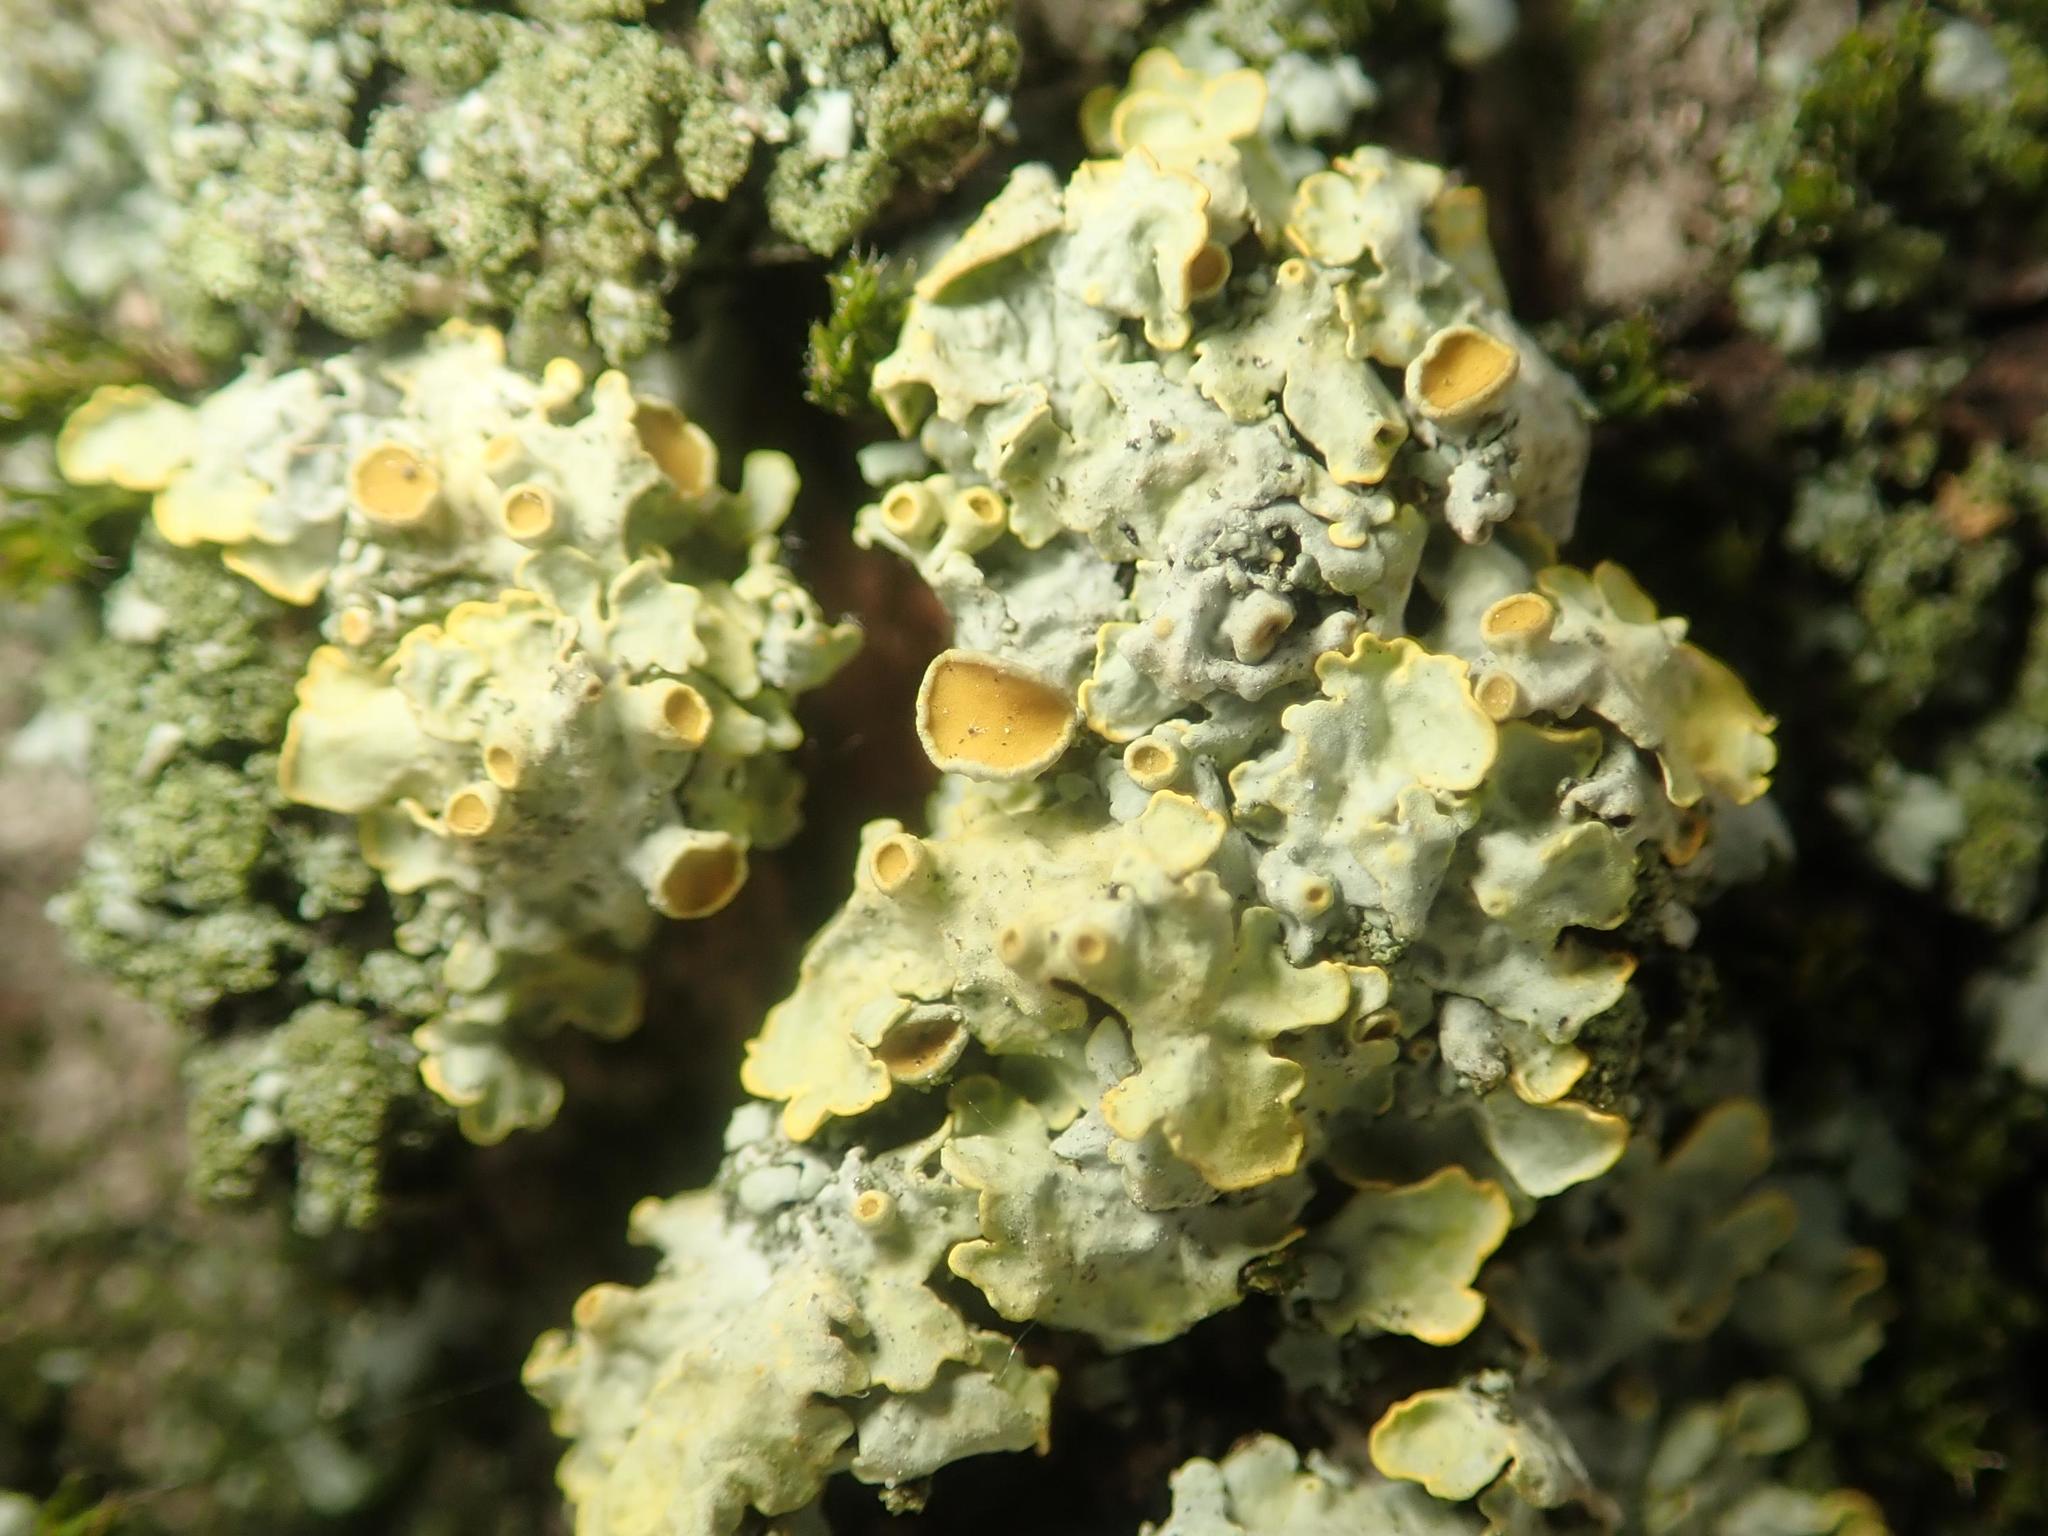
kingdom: Fungi
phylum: Ascomycota
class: Lecanoromycetes
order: Teloschistales
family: Teloschistaceae
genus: Xanthoria
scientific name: Xanthoria parietina
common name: Common orange lichen
